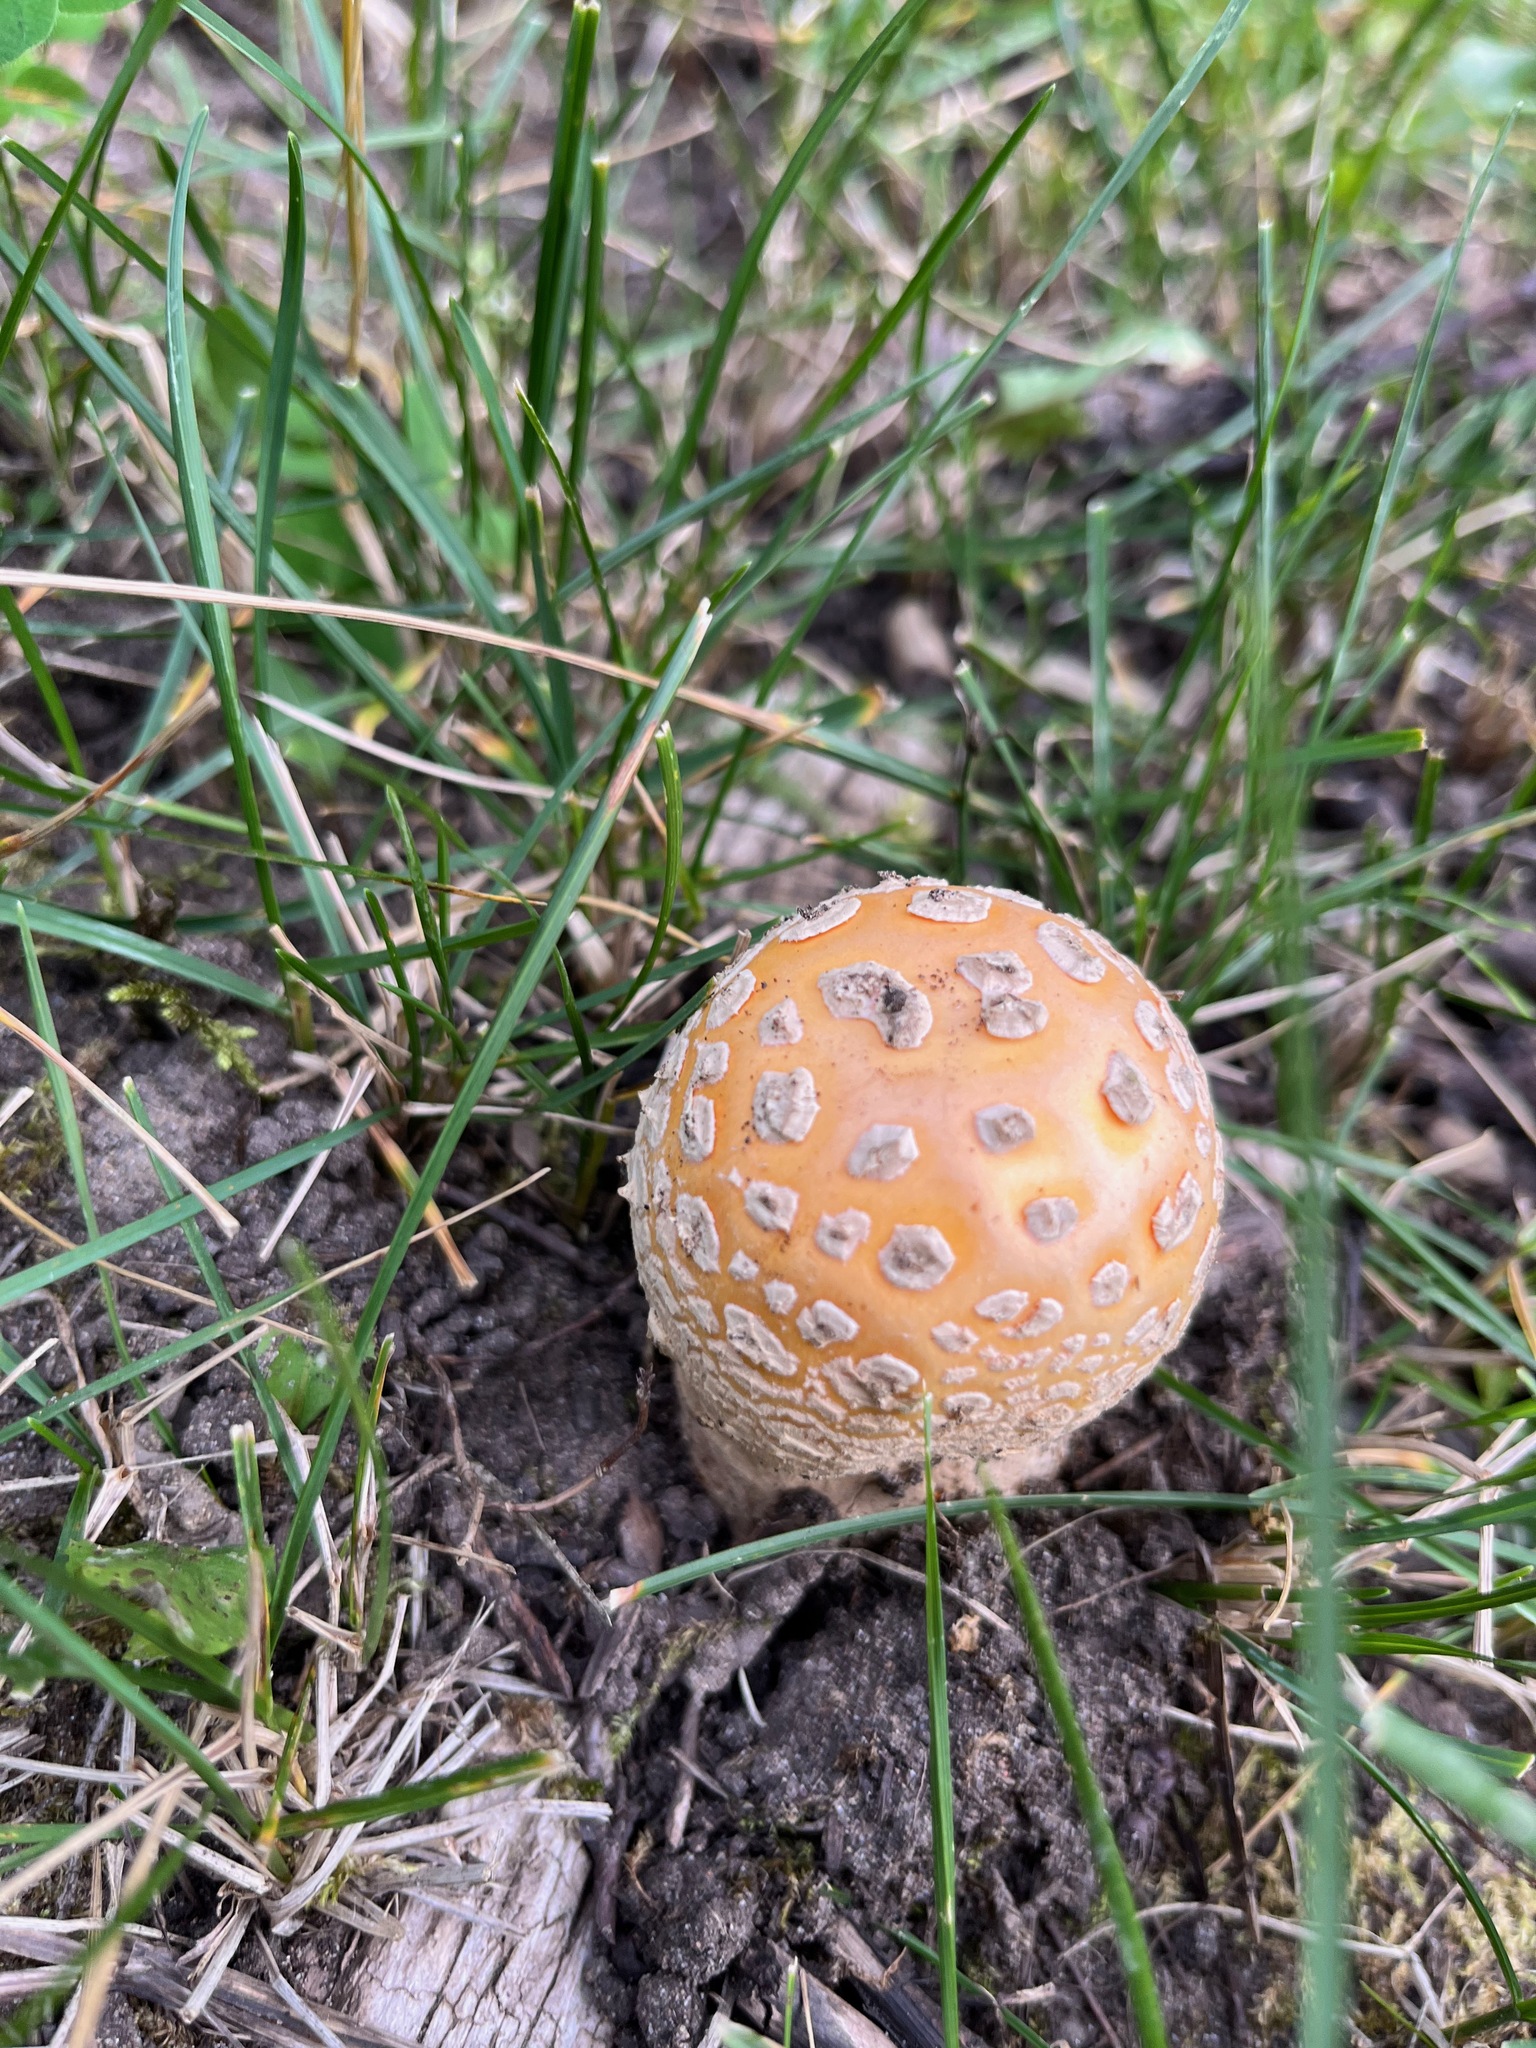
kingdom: Fungi
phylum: Basidiomycota
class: Agaricomycetes
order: Agaricales
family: Amanitaceae
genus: Amanita
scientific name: Amanita muscaria
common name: Fly agaric
